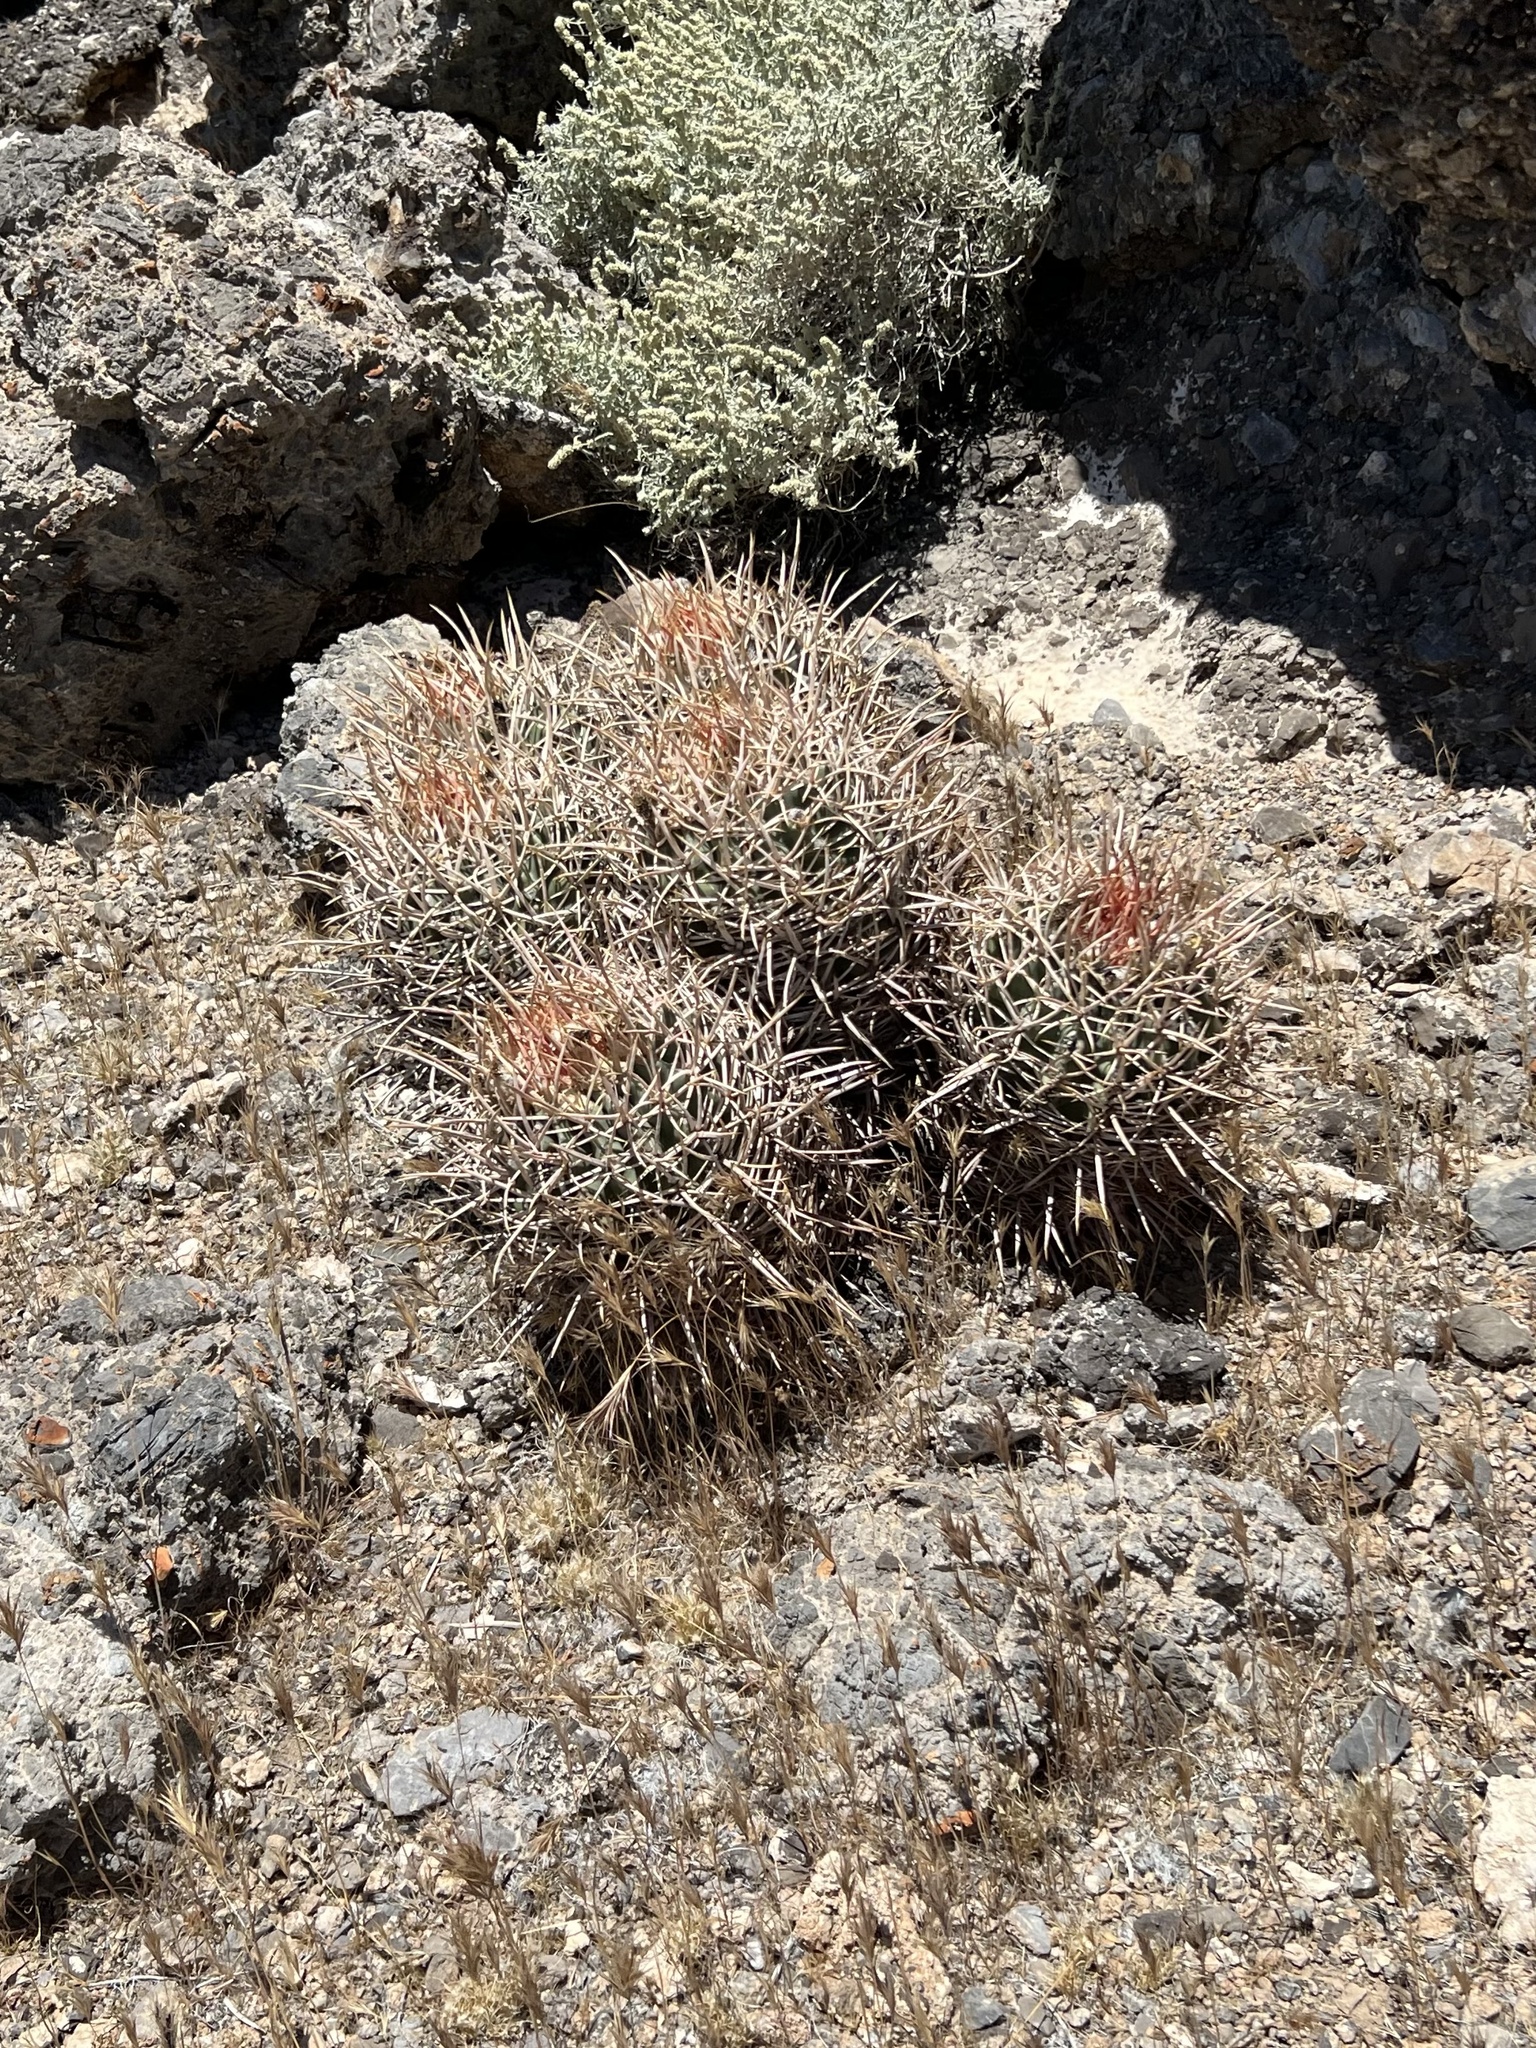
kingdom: Plantae
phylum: Tracheophyta
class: Magnoliopsida
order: Caryophyllales
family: Cactaceae
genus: Echinocactus
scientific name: Echinocactus polycephalus
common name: Cottontop cactus
